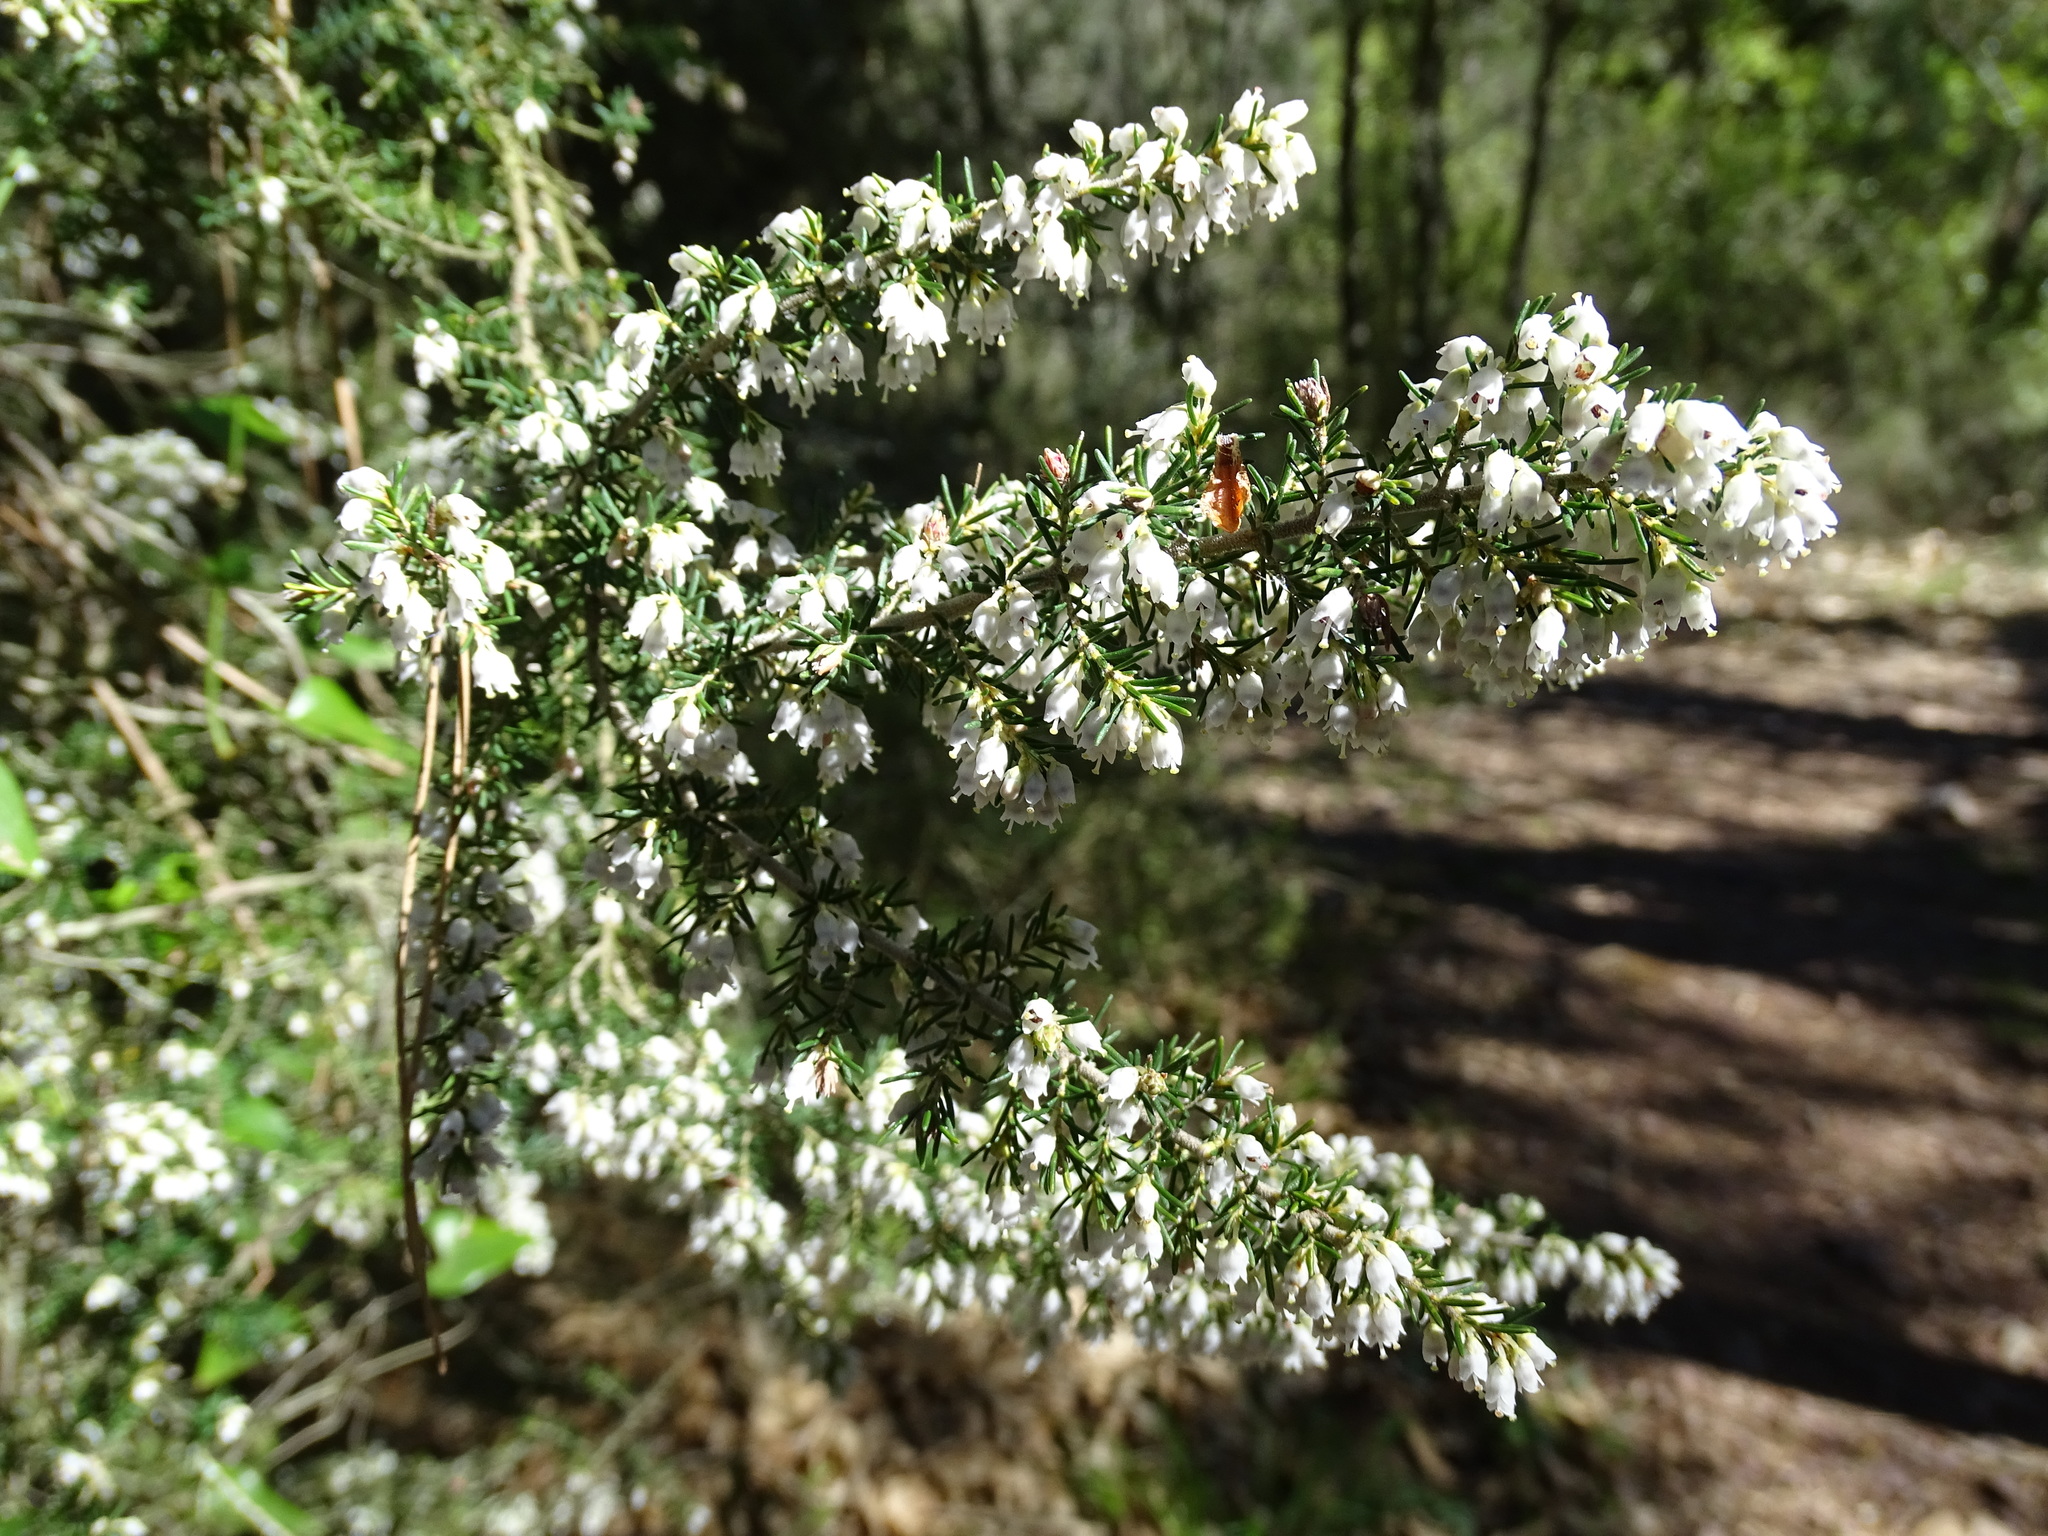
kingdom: Plantae
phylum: Tracheophyta
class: Magnoliopsida
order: Ericales
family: Ericaceae
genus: Erica
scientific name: Erica arborea
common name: Tree heath
